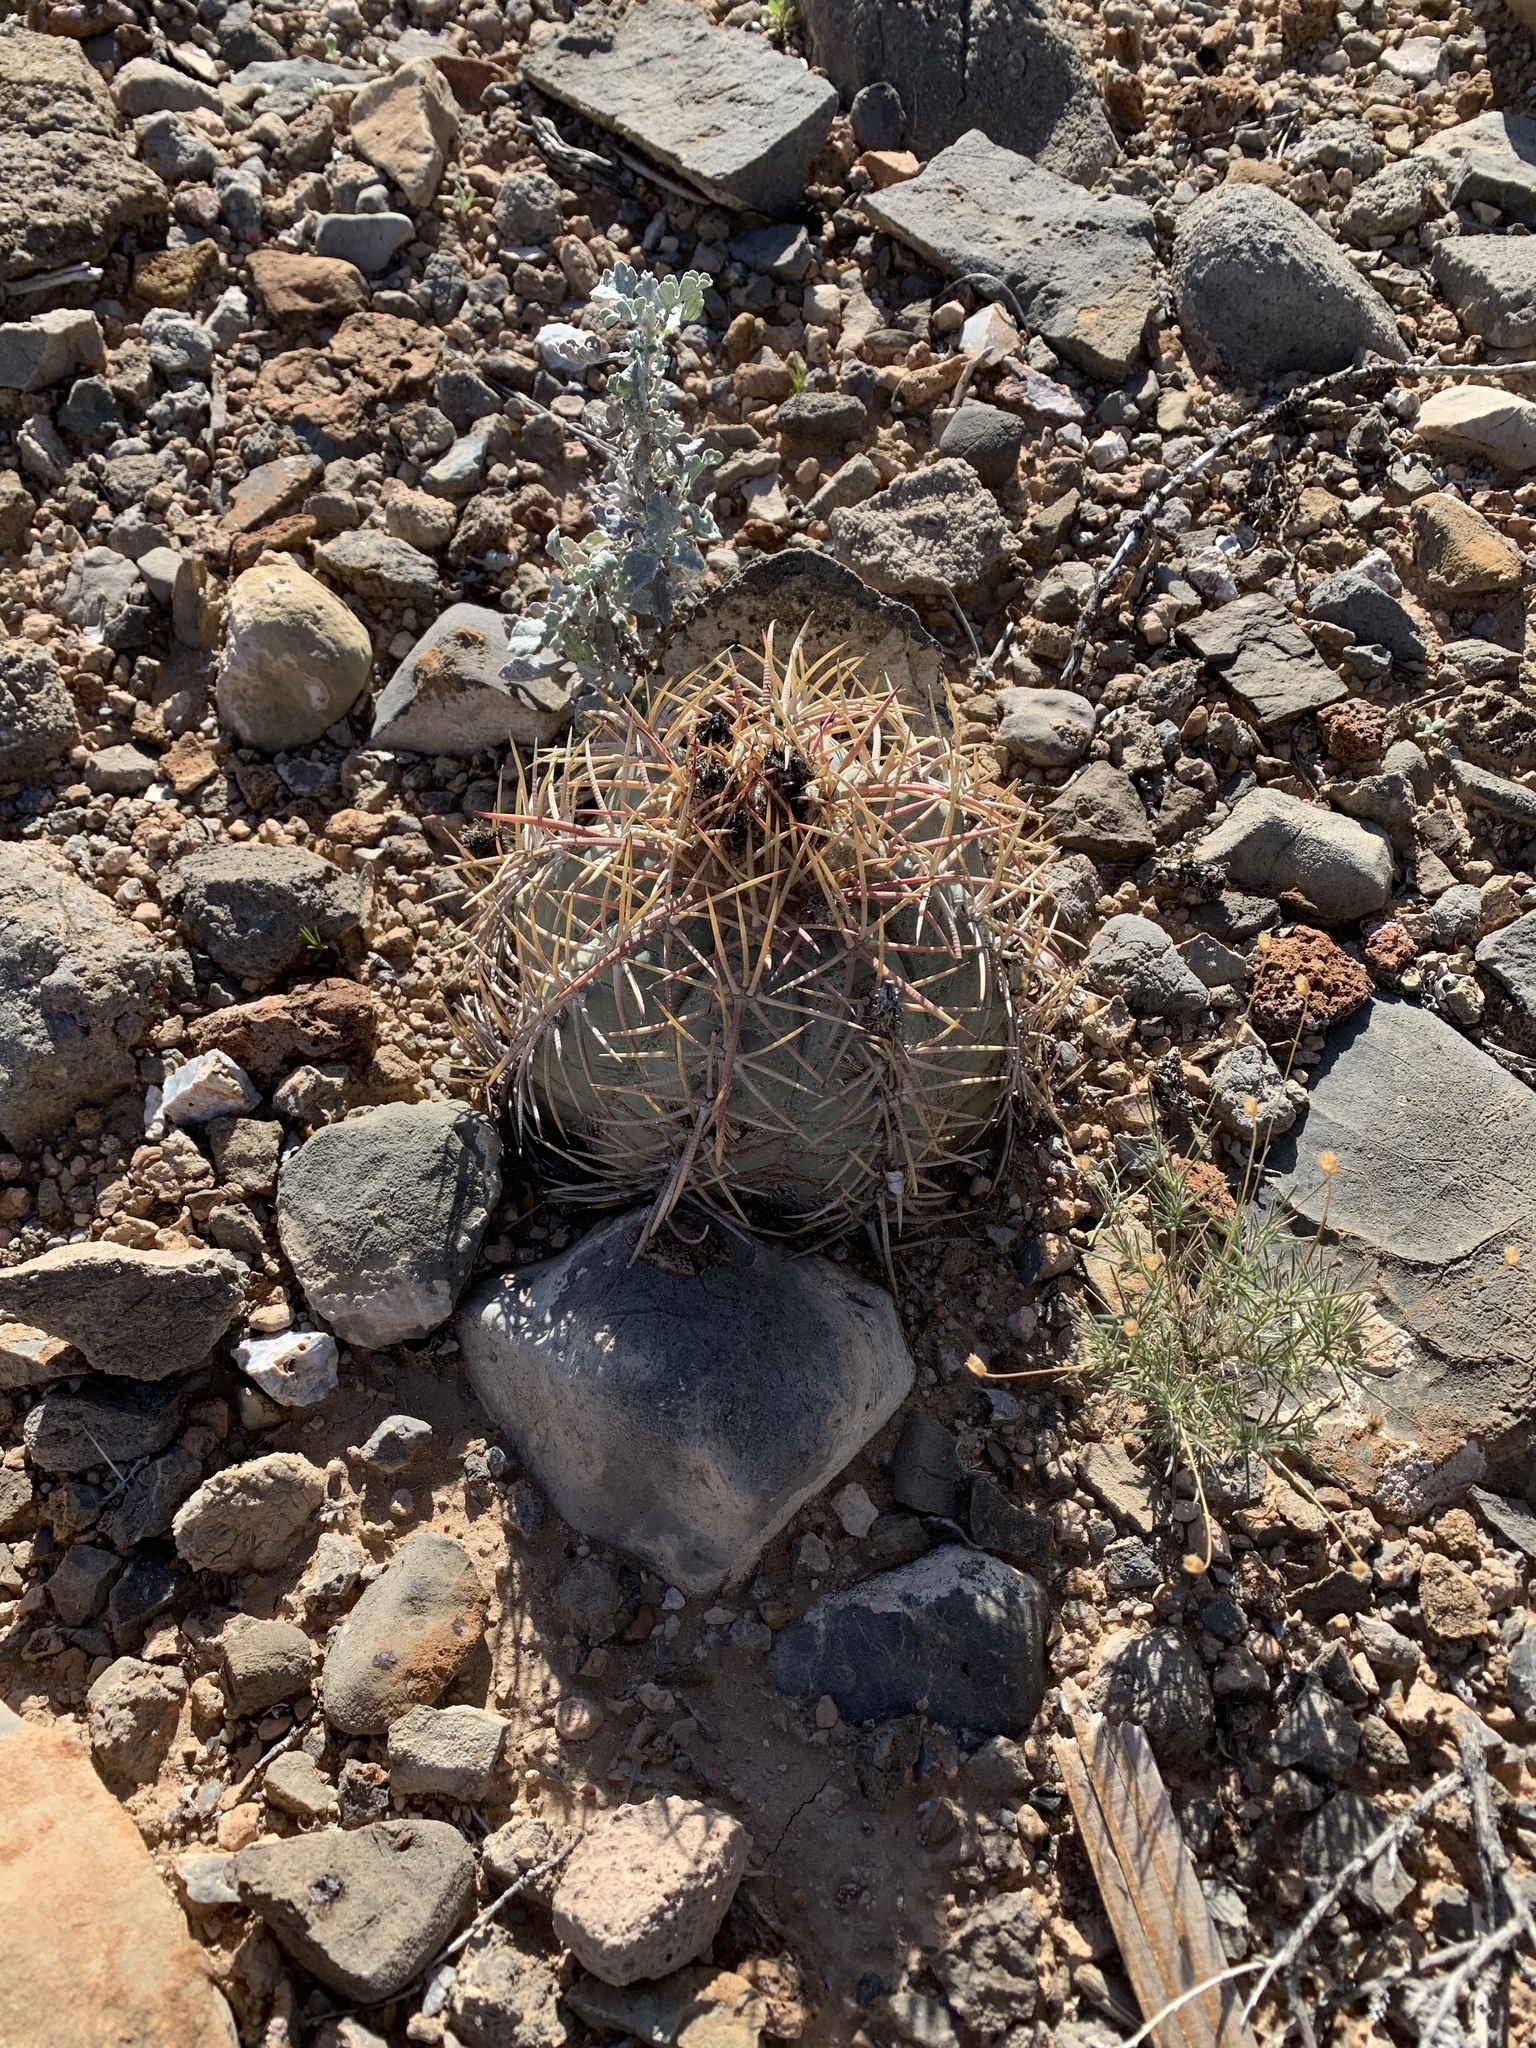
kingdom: Plantae
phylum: Tracheophyta
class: Magnoliopsida
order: Caryophyllales
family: Cactaceae
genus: Echinocactus
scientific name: Echinocactus horizonthalonius
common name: Devilshead
